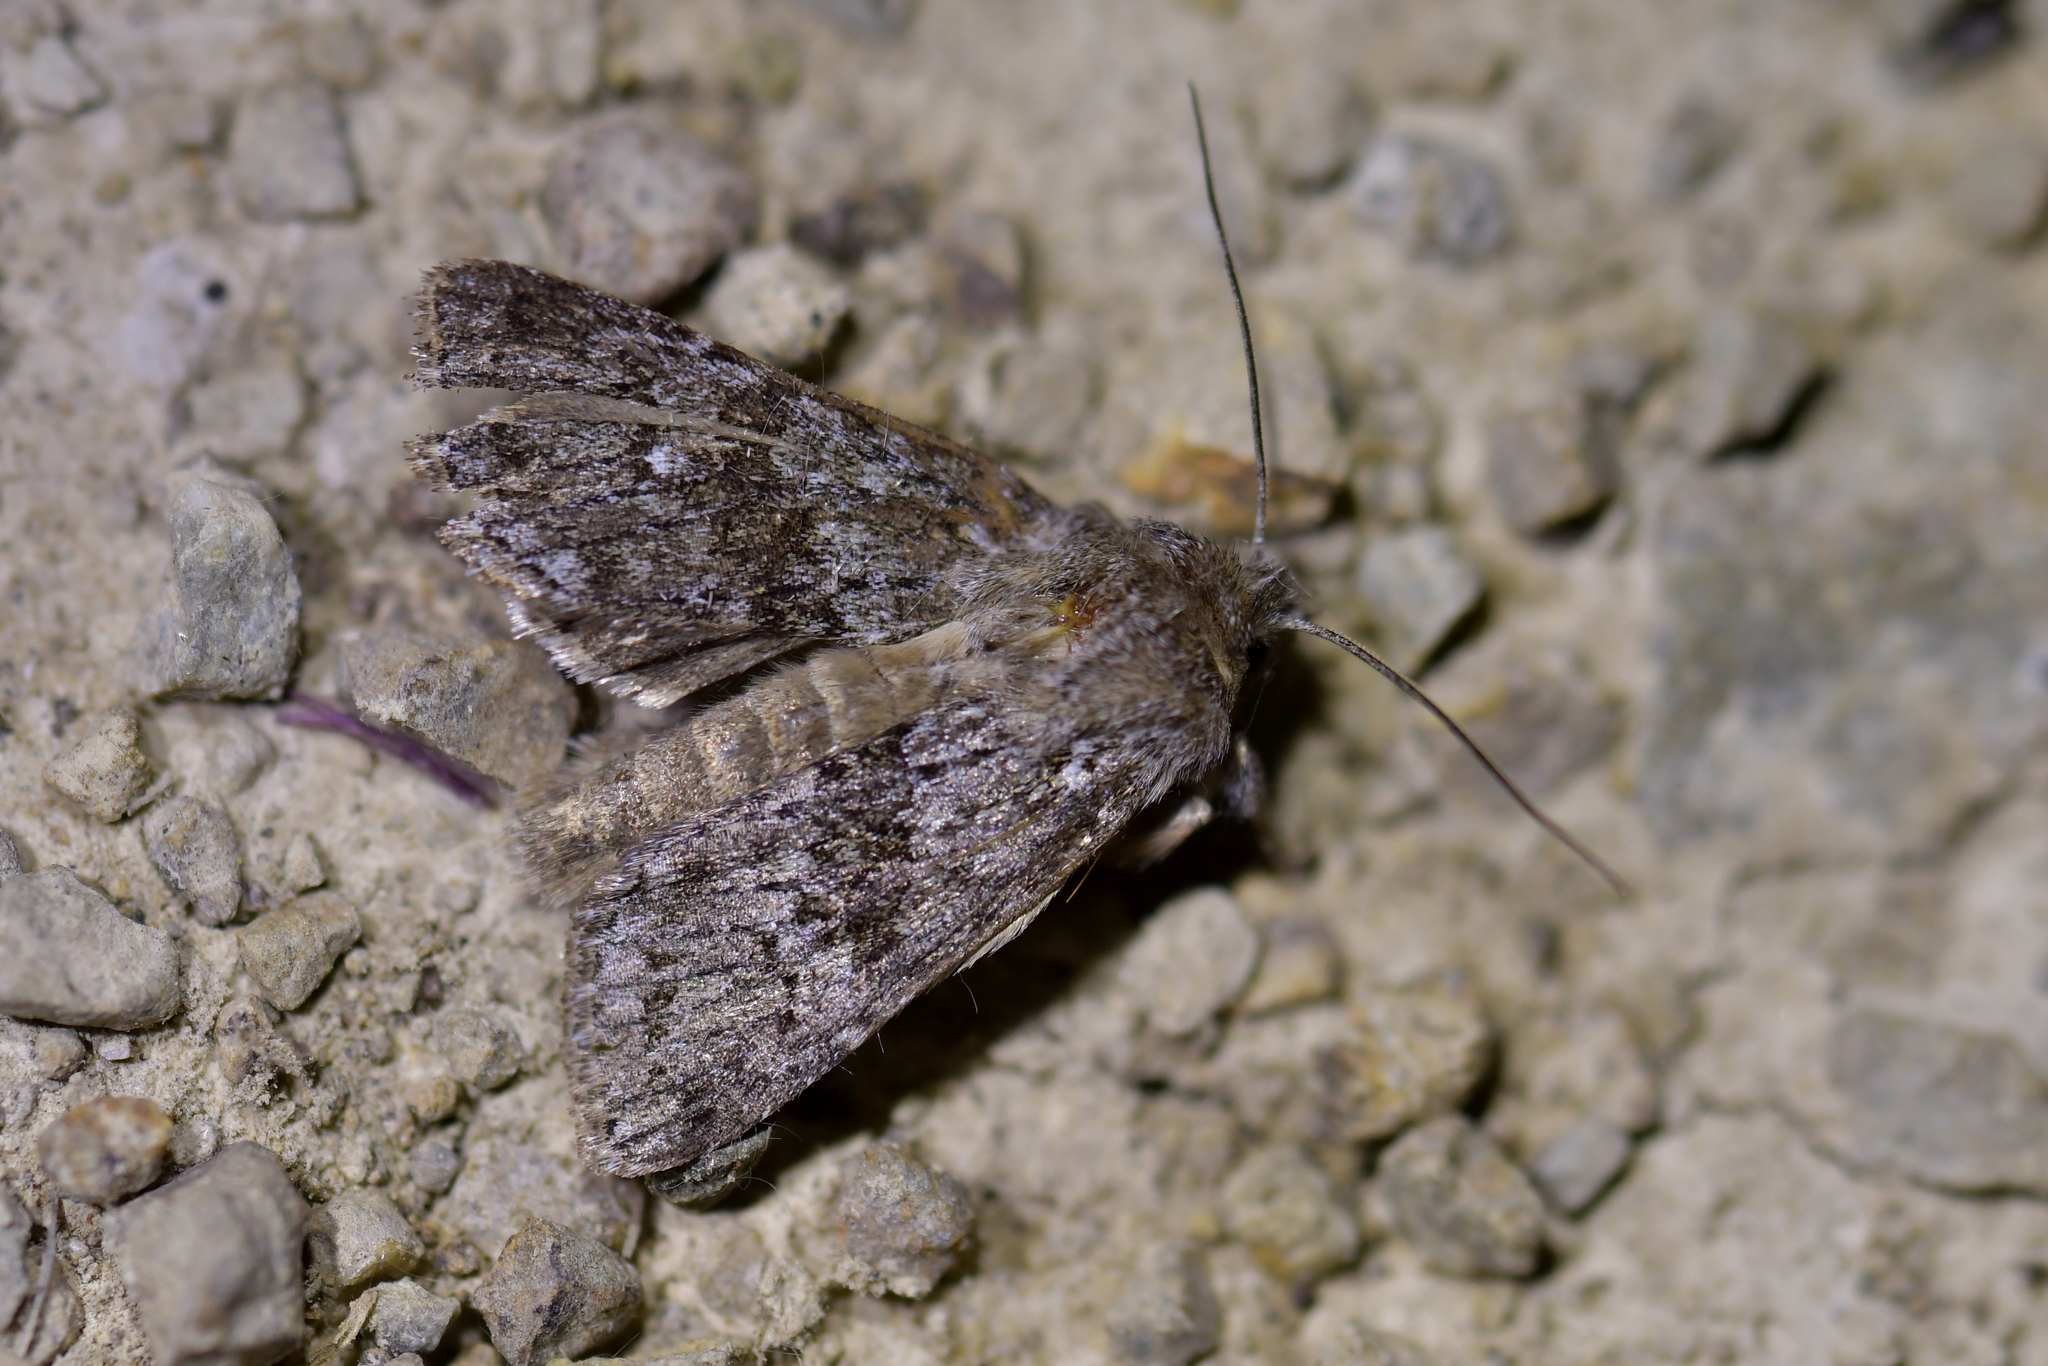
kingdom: Animalia
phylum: Arthropoda
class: Insecta
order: Lepidoptera
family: Noctuidae
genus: Physetica
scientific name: Physetica cucullina
